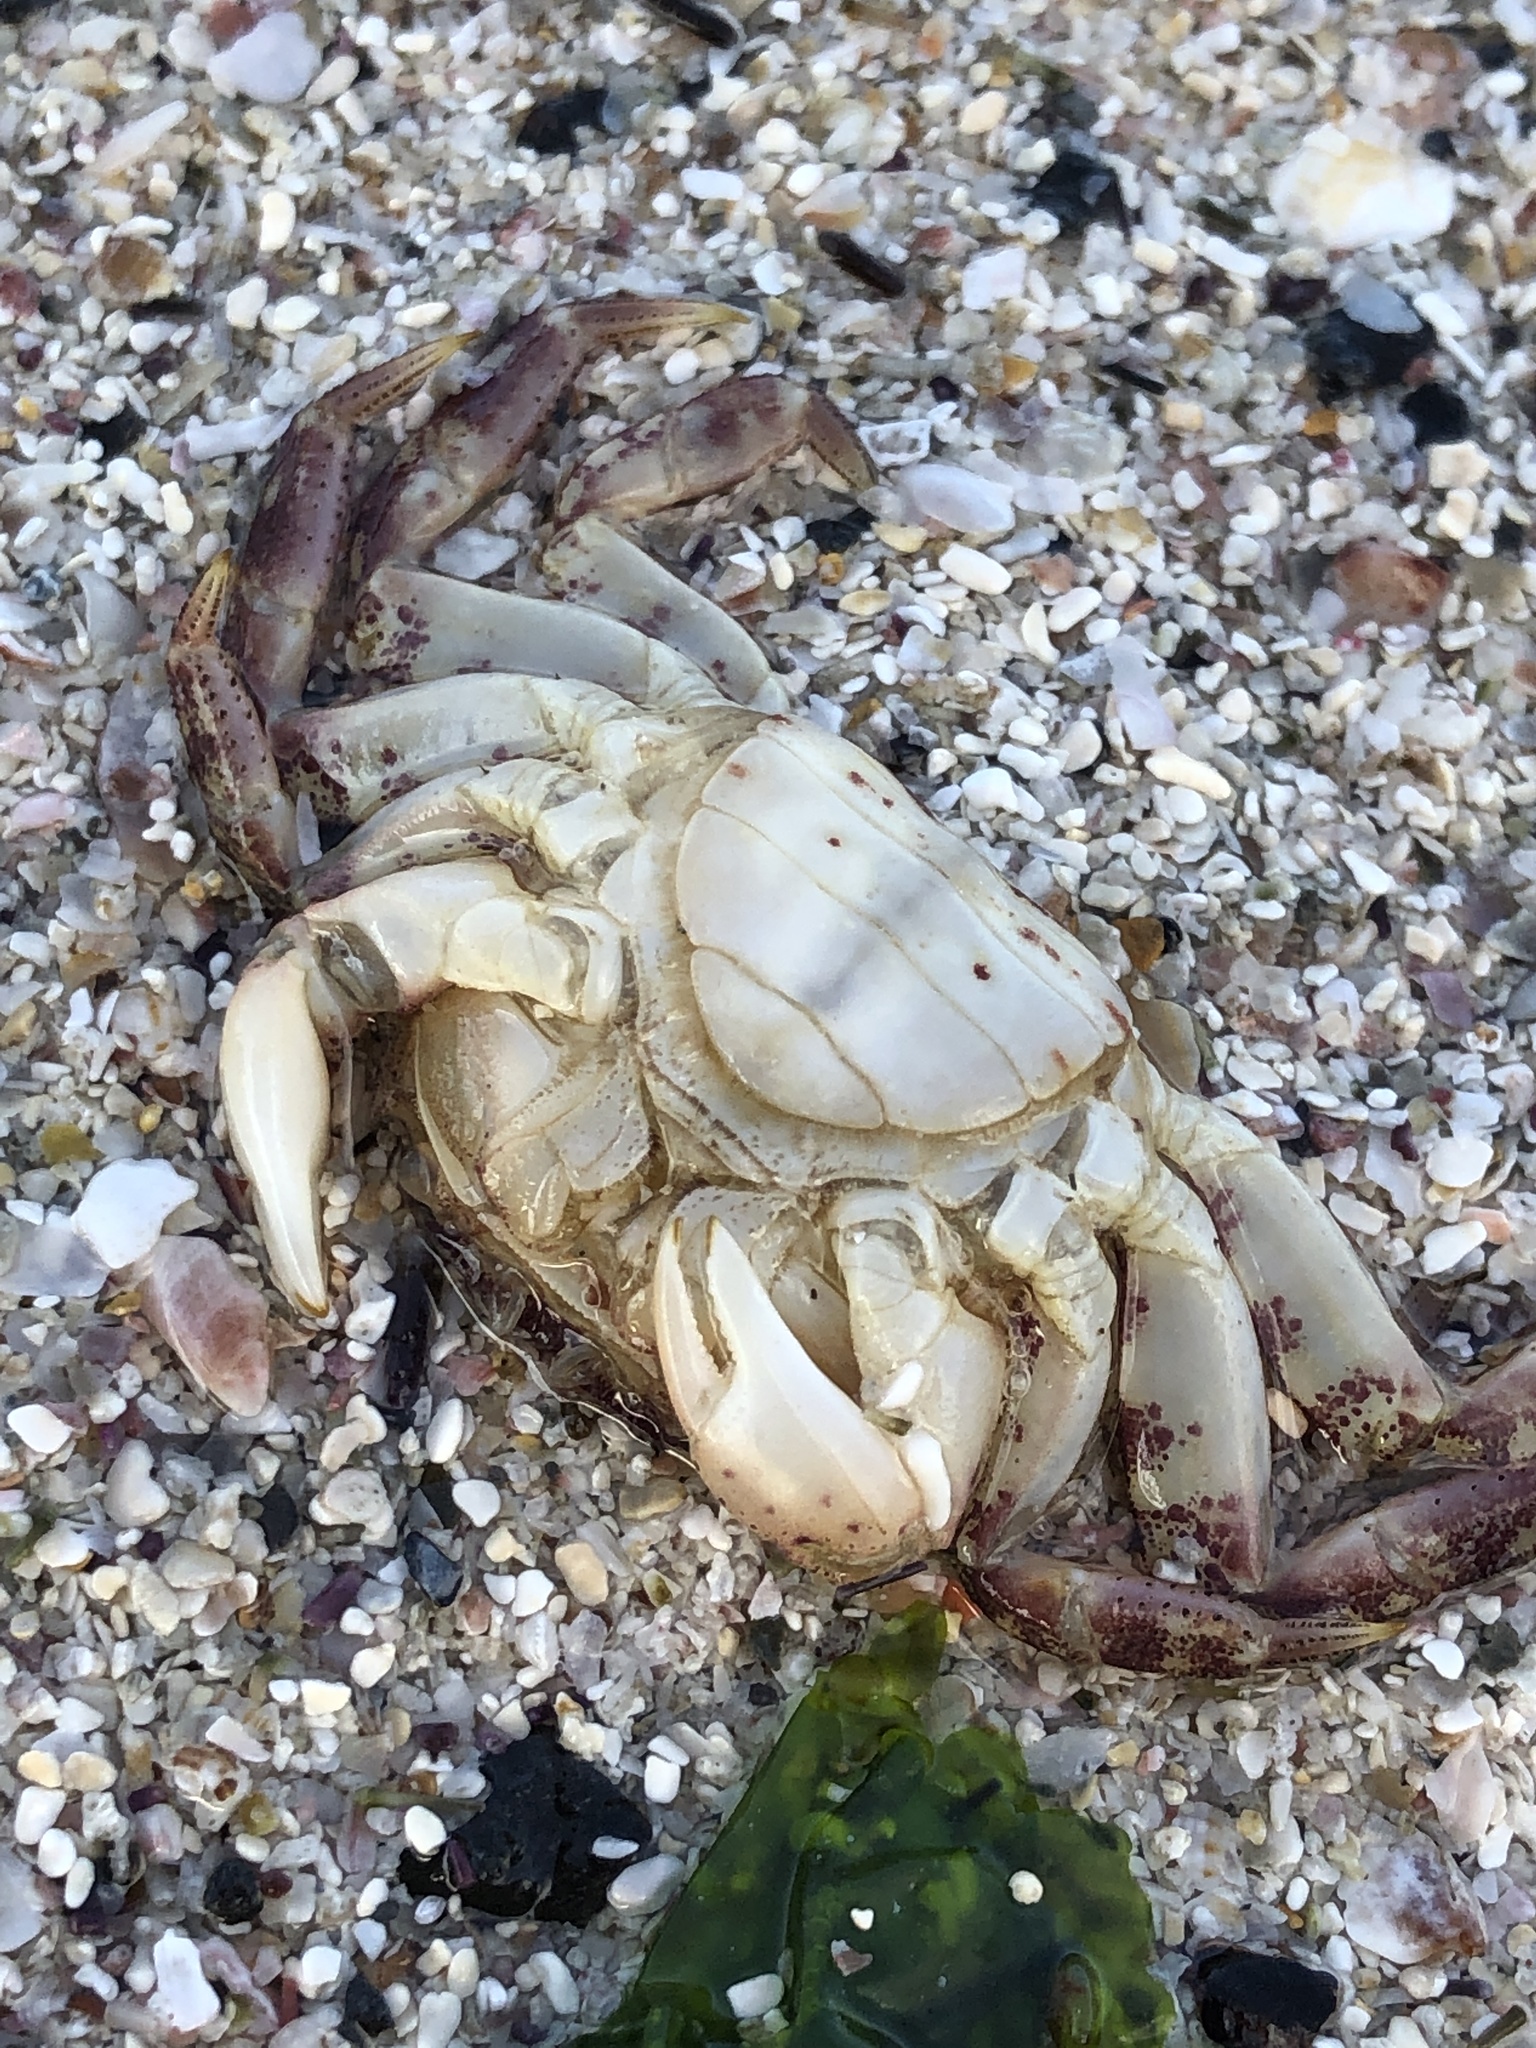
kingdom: Animalia
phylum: Arthropoda
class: Malacostraca
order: Decapoda
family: Varunidae
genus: Hemigrapsus
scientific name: Hemigrapsus sanguineus
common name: Asian shore crab
